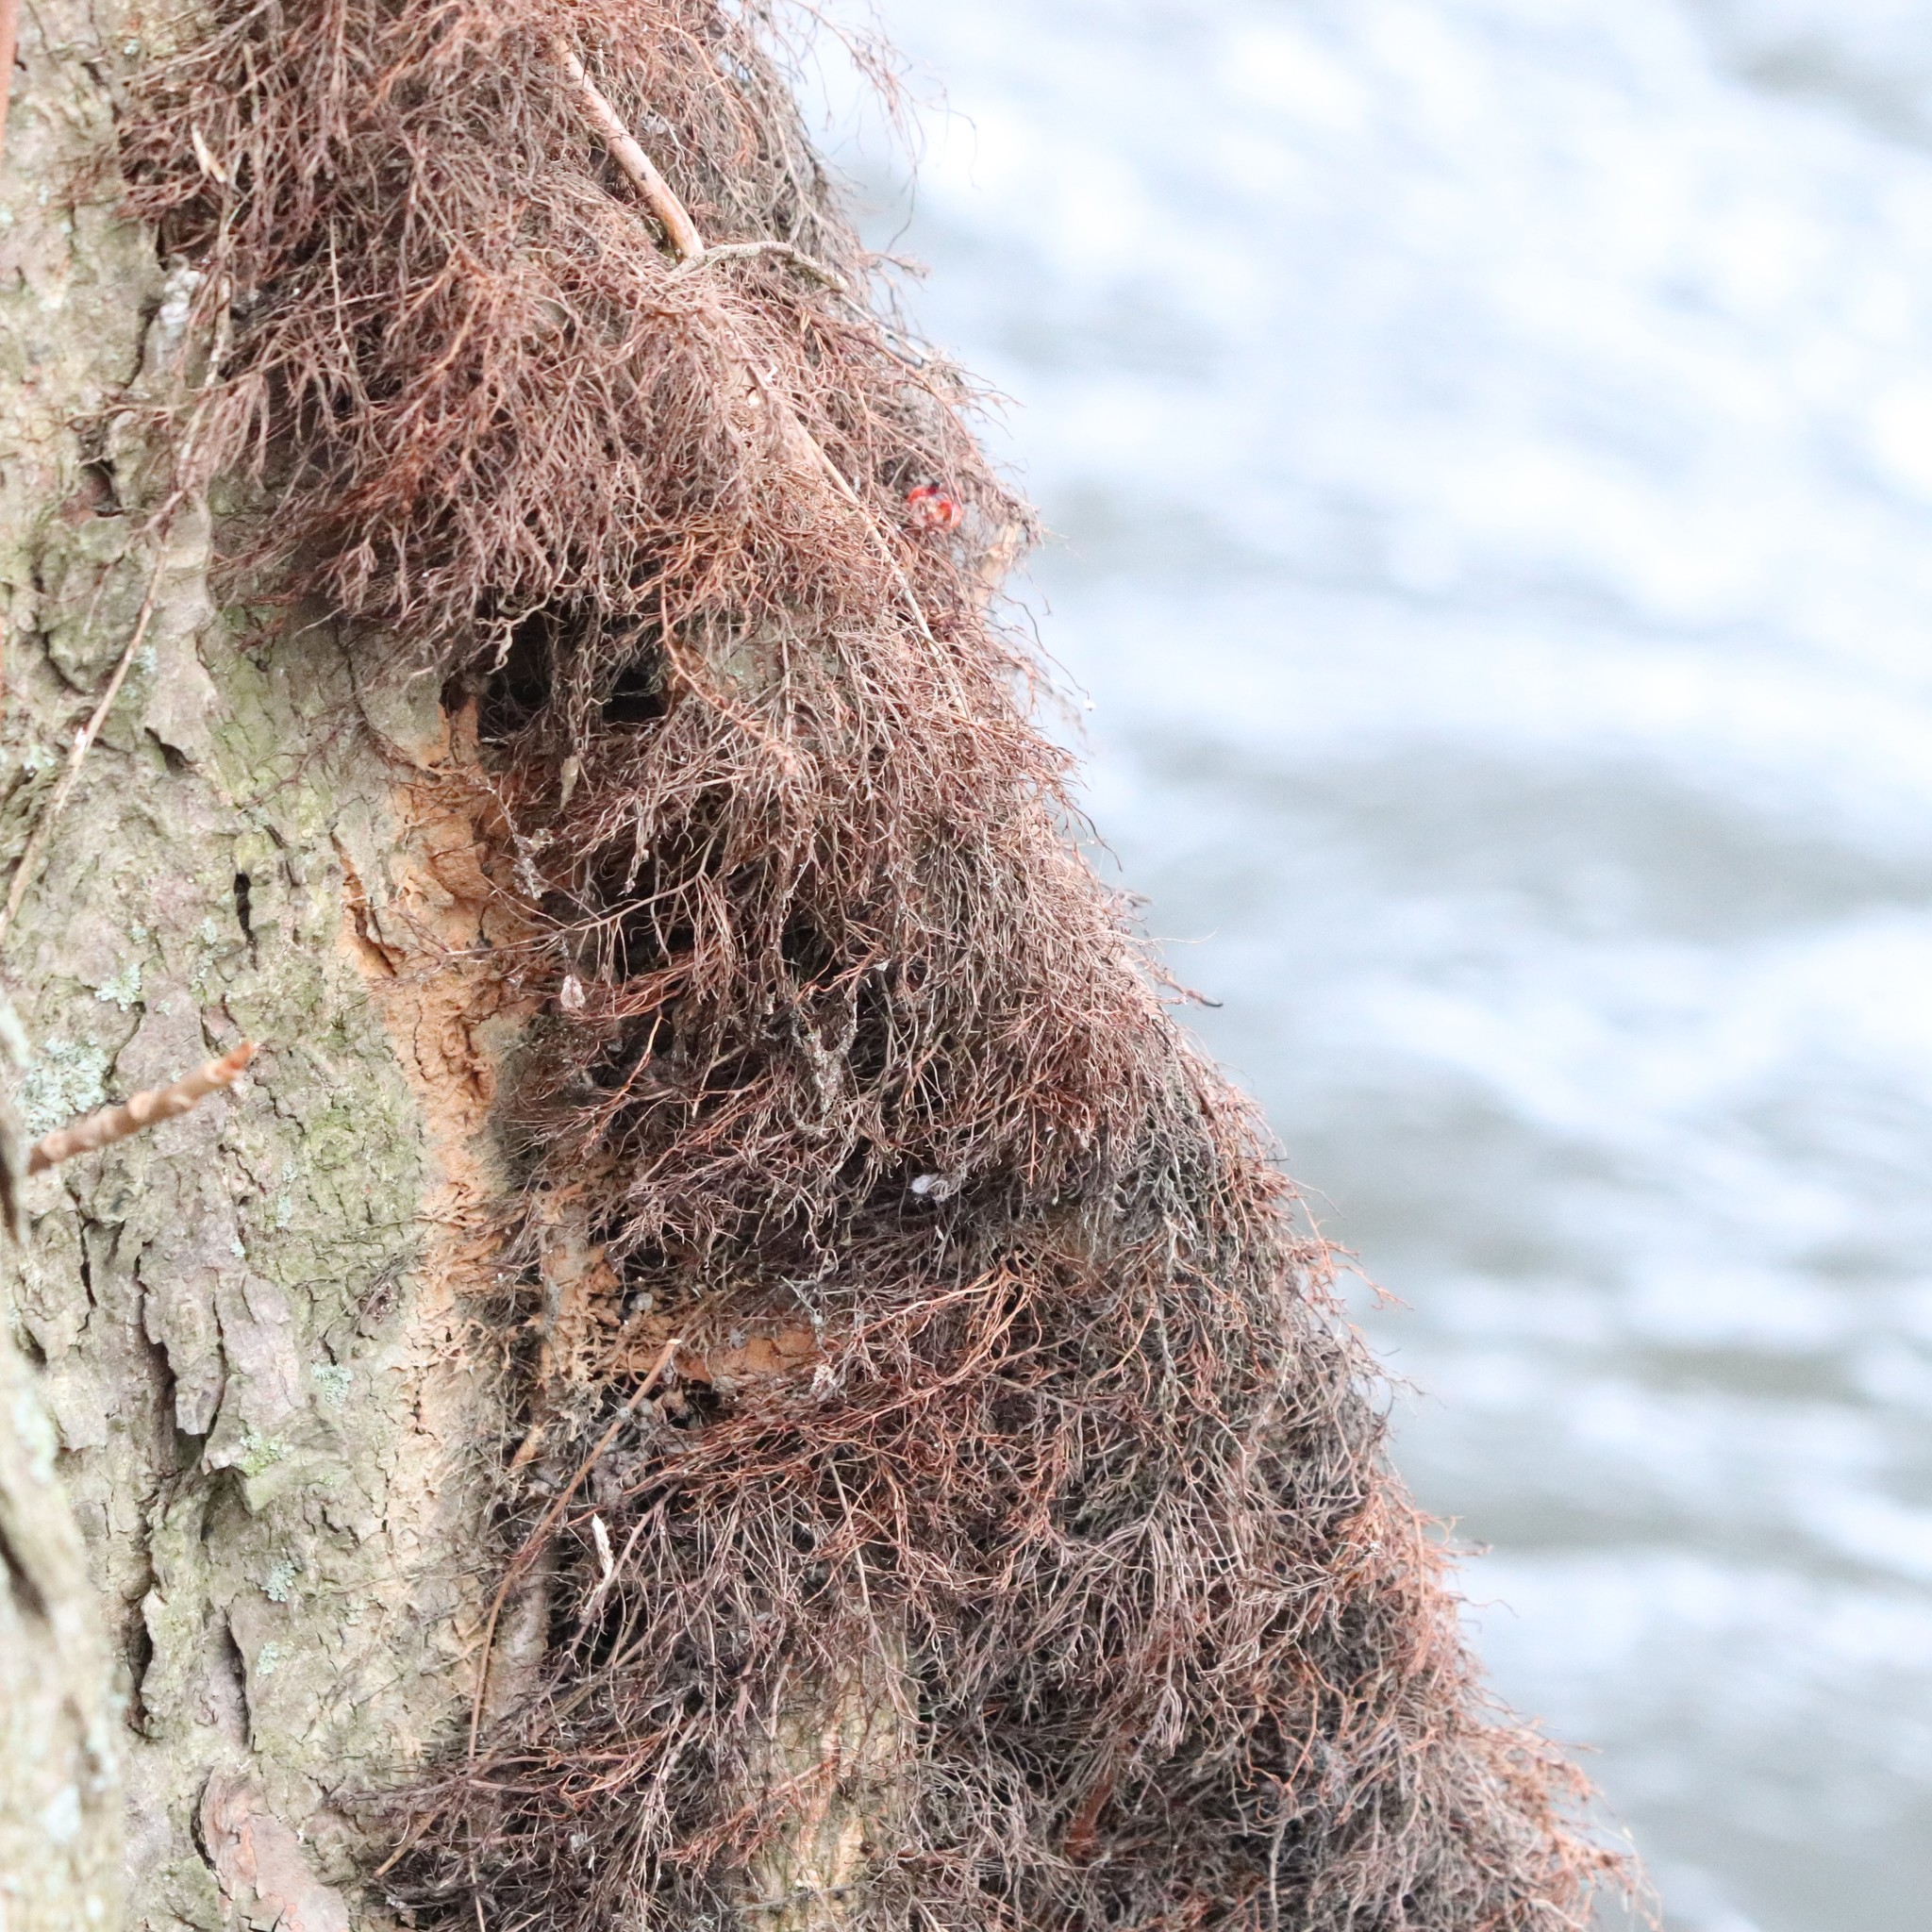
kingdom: Plantae
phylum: Tracheophyta
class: Magnoliopsida
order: Sapindales
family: Anacardiaceae
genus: Toxicodendron
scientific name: Toxicodendron radicans
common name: Poison ivy
